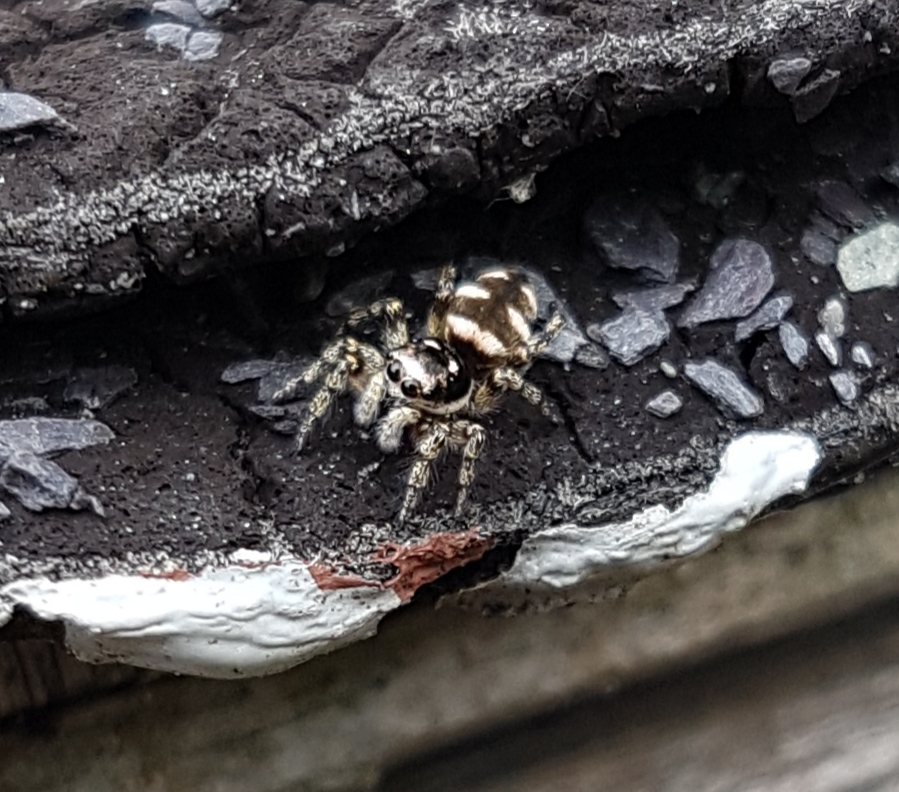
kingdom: Animalia
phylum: Arthropoda
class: Arachnida
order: Araneae
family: Salticidae
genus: Salticus
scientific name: Salticus scenicus
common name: Zebra jumper
